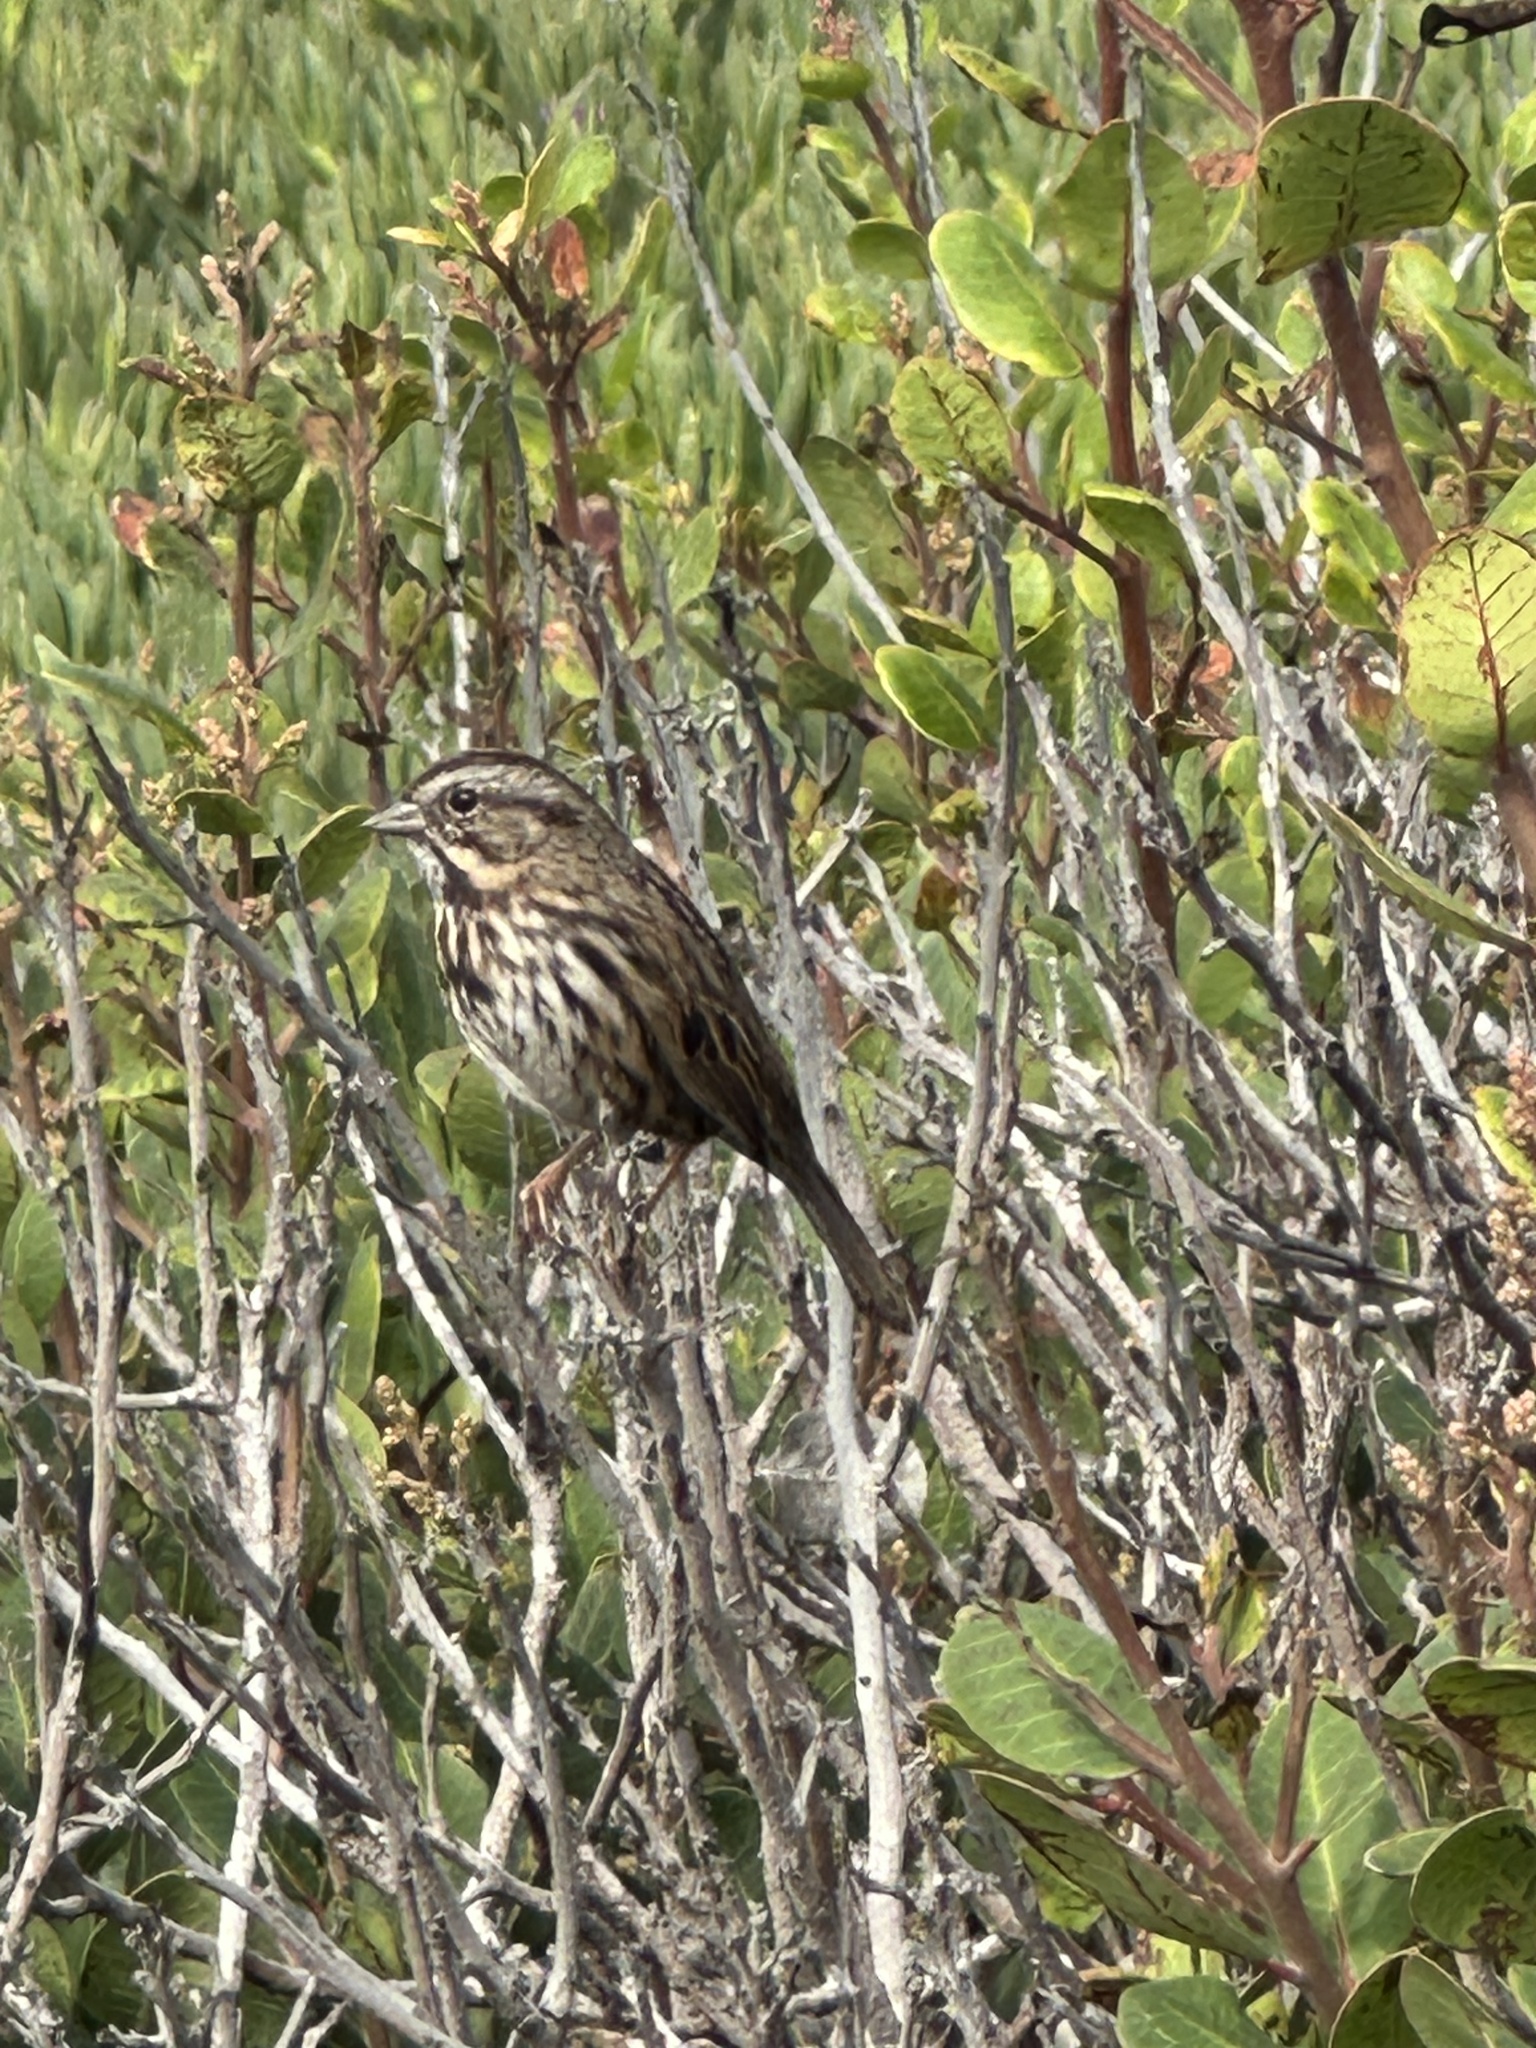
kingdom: Animalia
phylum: Chordata
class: Aves
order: Passeriformes
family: Passerellidae
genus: Melospiza
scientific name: Melospiza melodia
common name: Song sparrow
